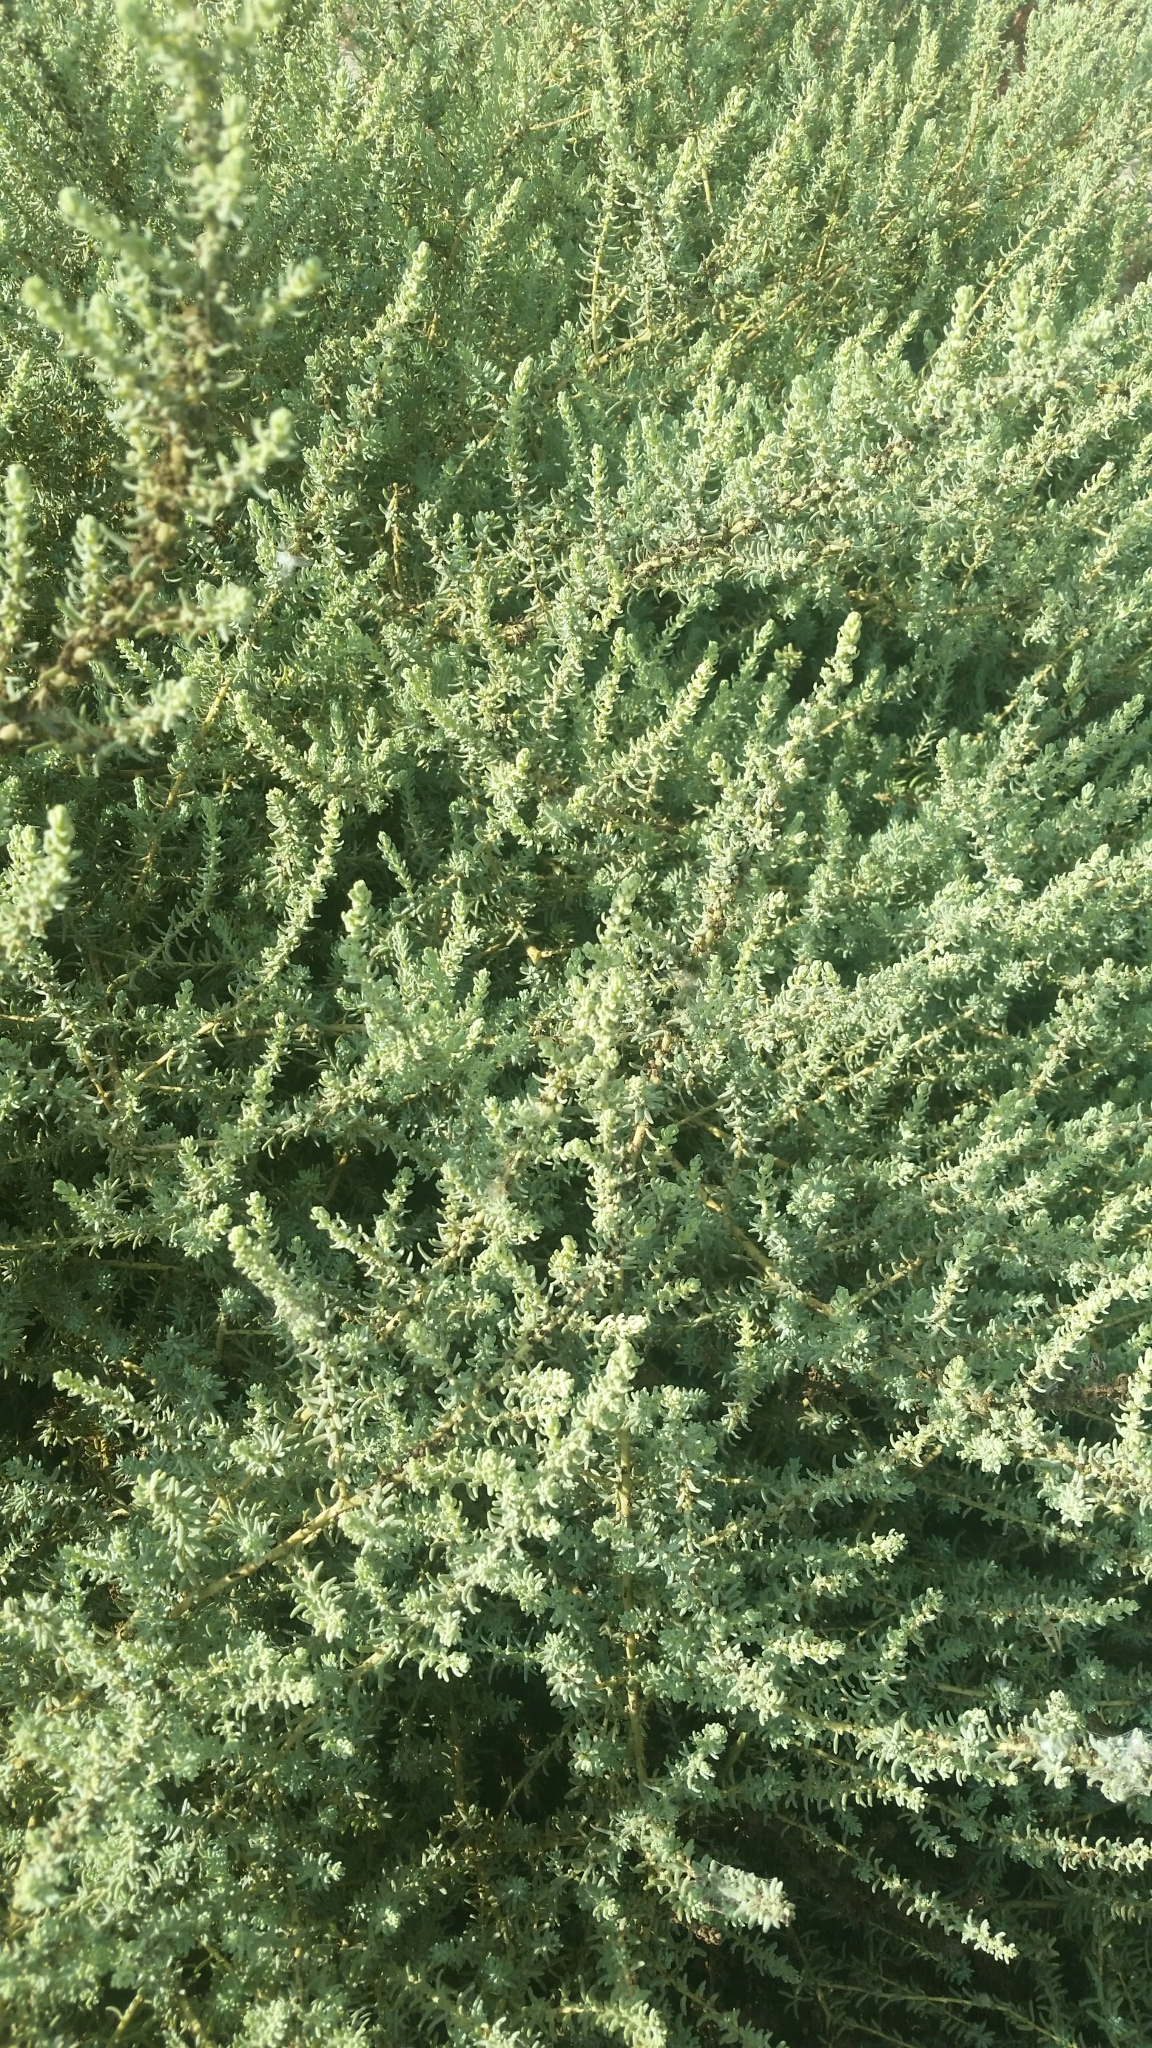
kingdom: Plantae
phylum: Tracheophyta
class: Magnoliopsida
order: Caryophyllales
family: Amaranthaceae
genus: Suaeda
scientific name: Suaeda taxifolia
